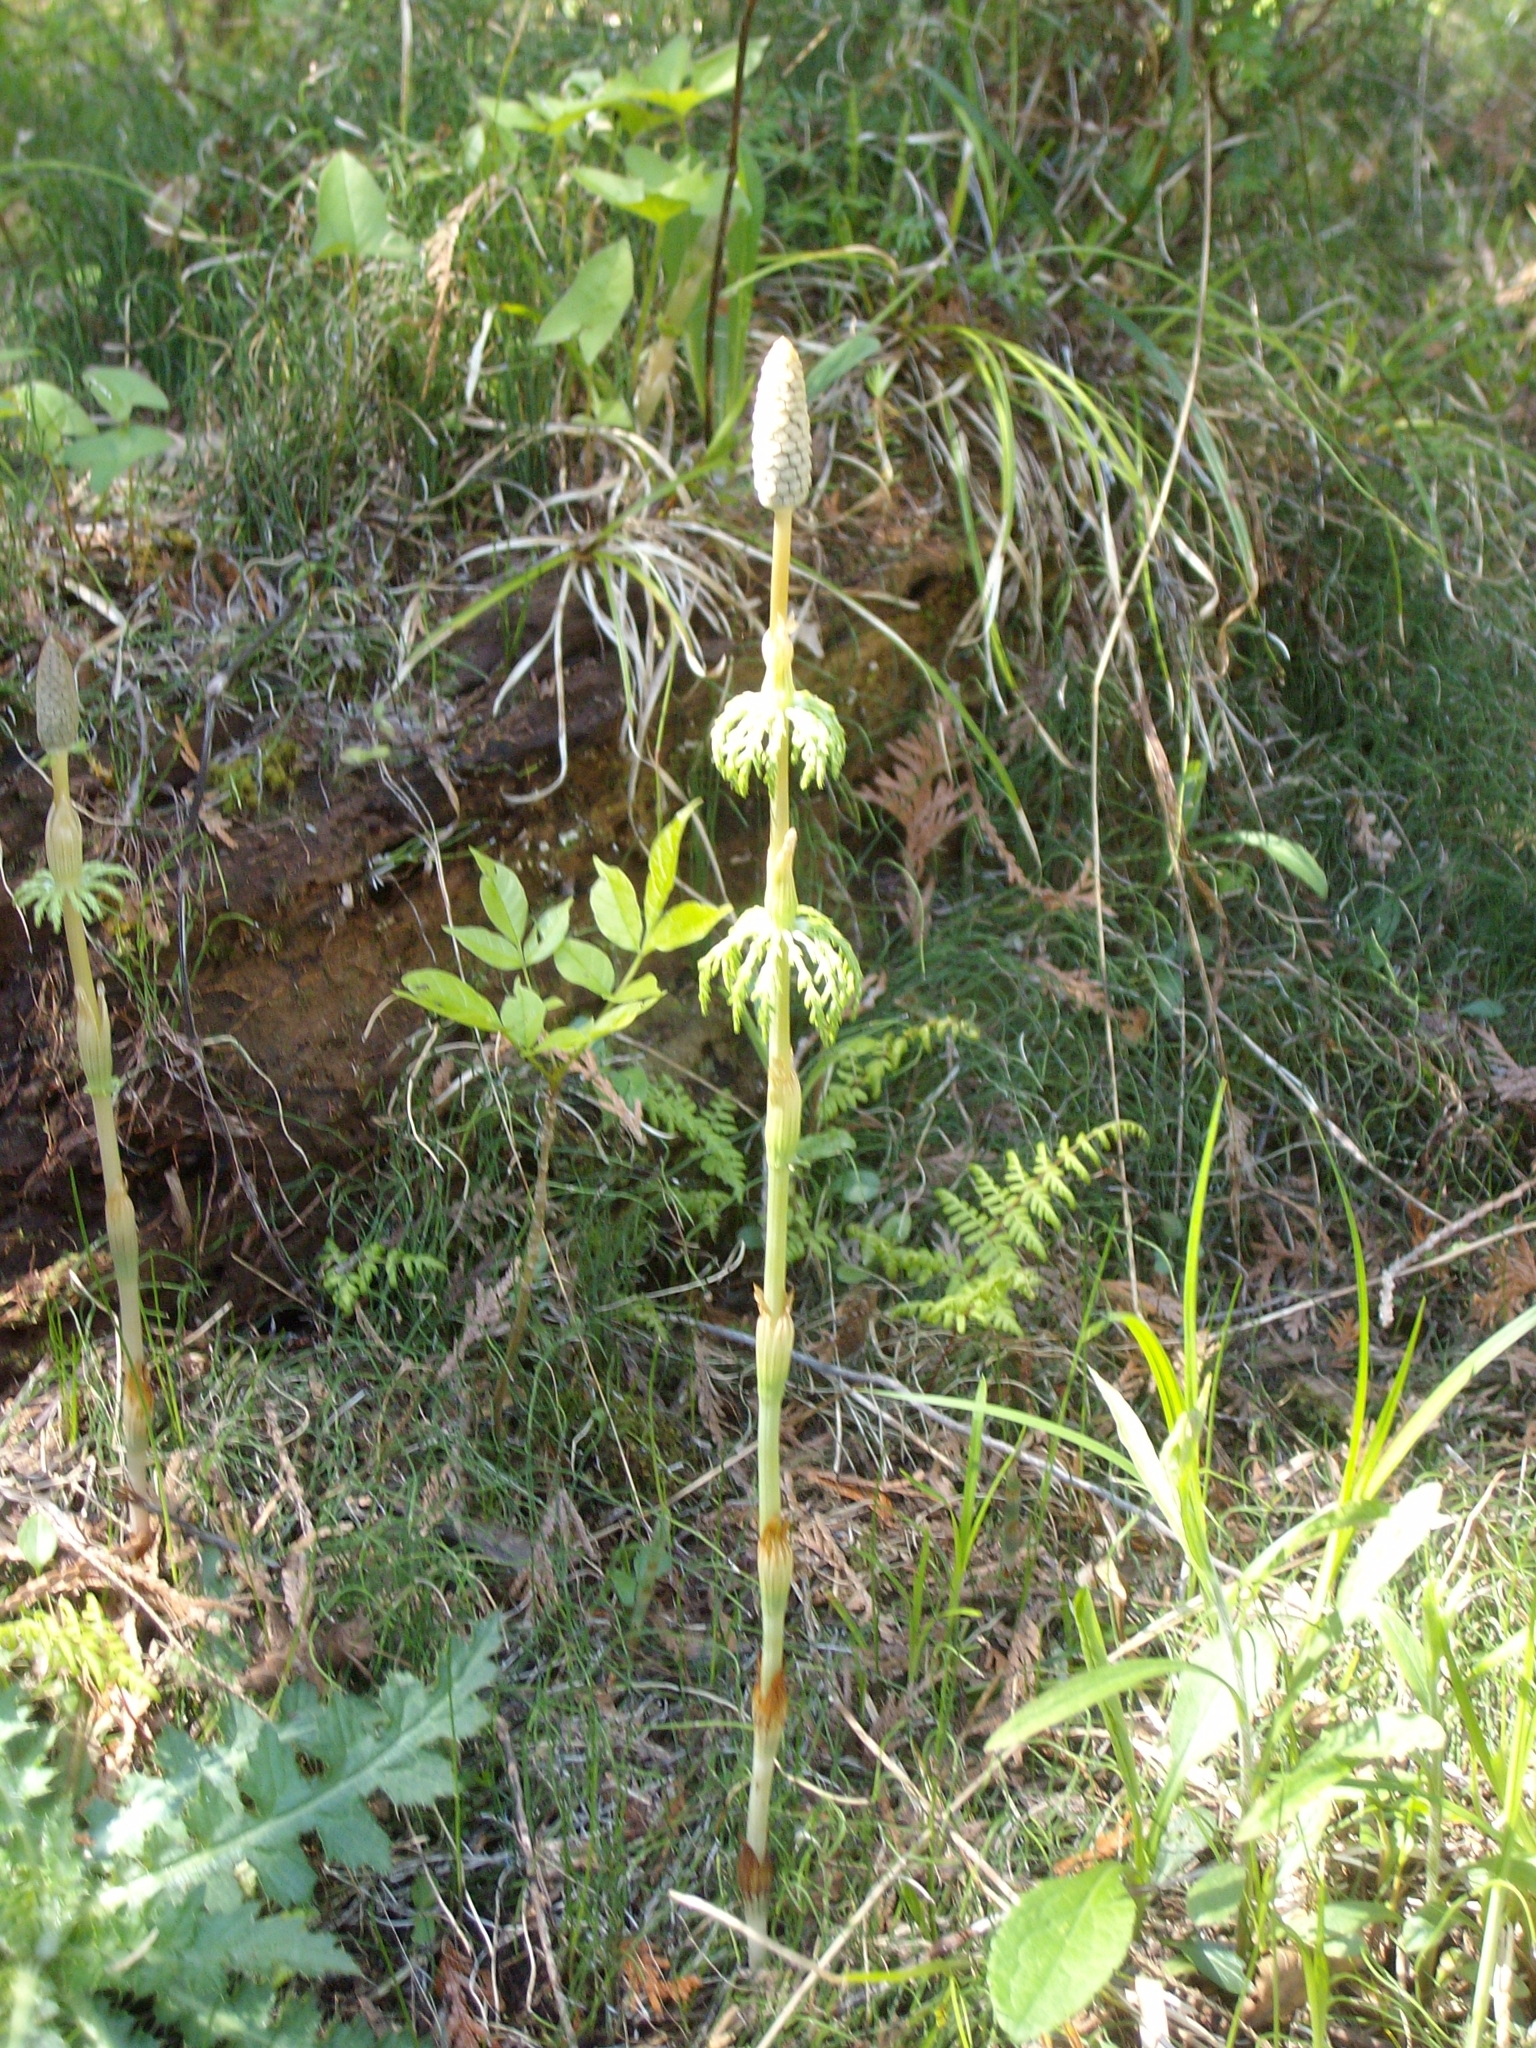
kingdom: Plantae
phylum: Tracheophyta
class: Polypodiopsida
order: Equisetales
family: Equisetaceae
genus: Equisetum
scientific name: Equisetum sylvaticum
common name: Wood horsetail
